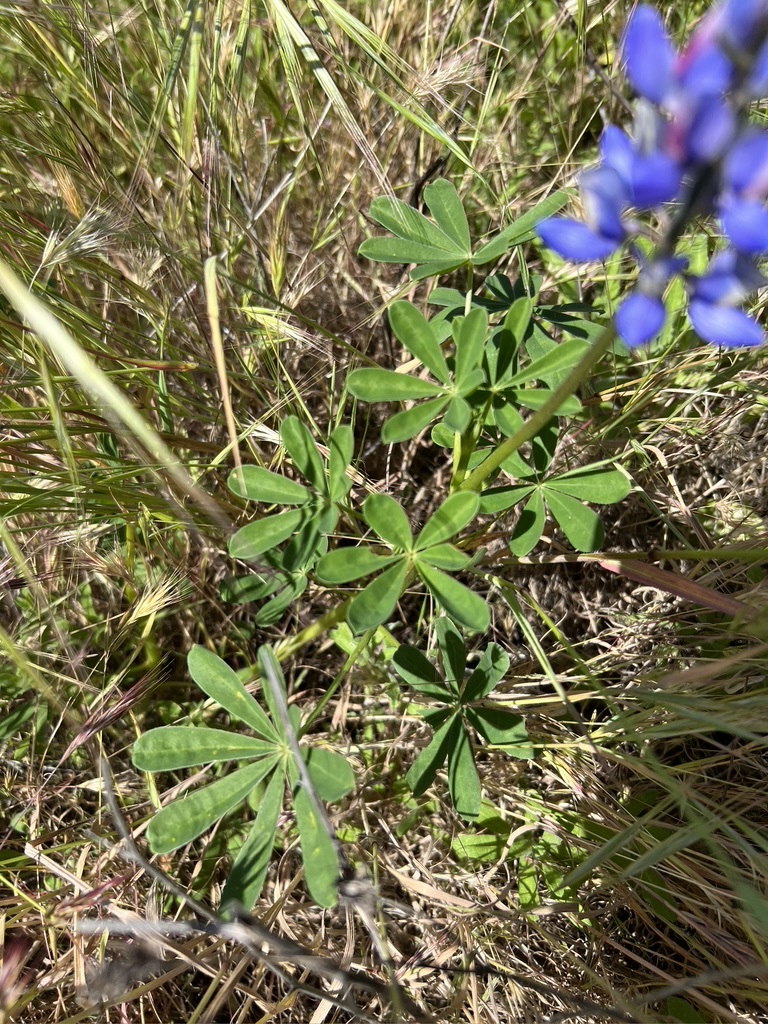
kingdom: Plantae
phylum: Tracheophyta
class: Magnoliopsida
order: Fabales
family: Fabaceae
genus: Lupinus
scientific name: Lupinus succulentus
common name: Arroyo lupine
